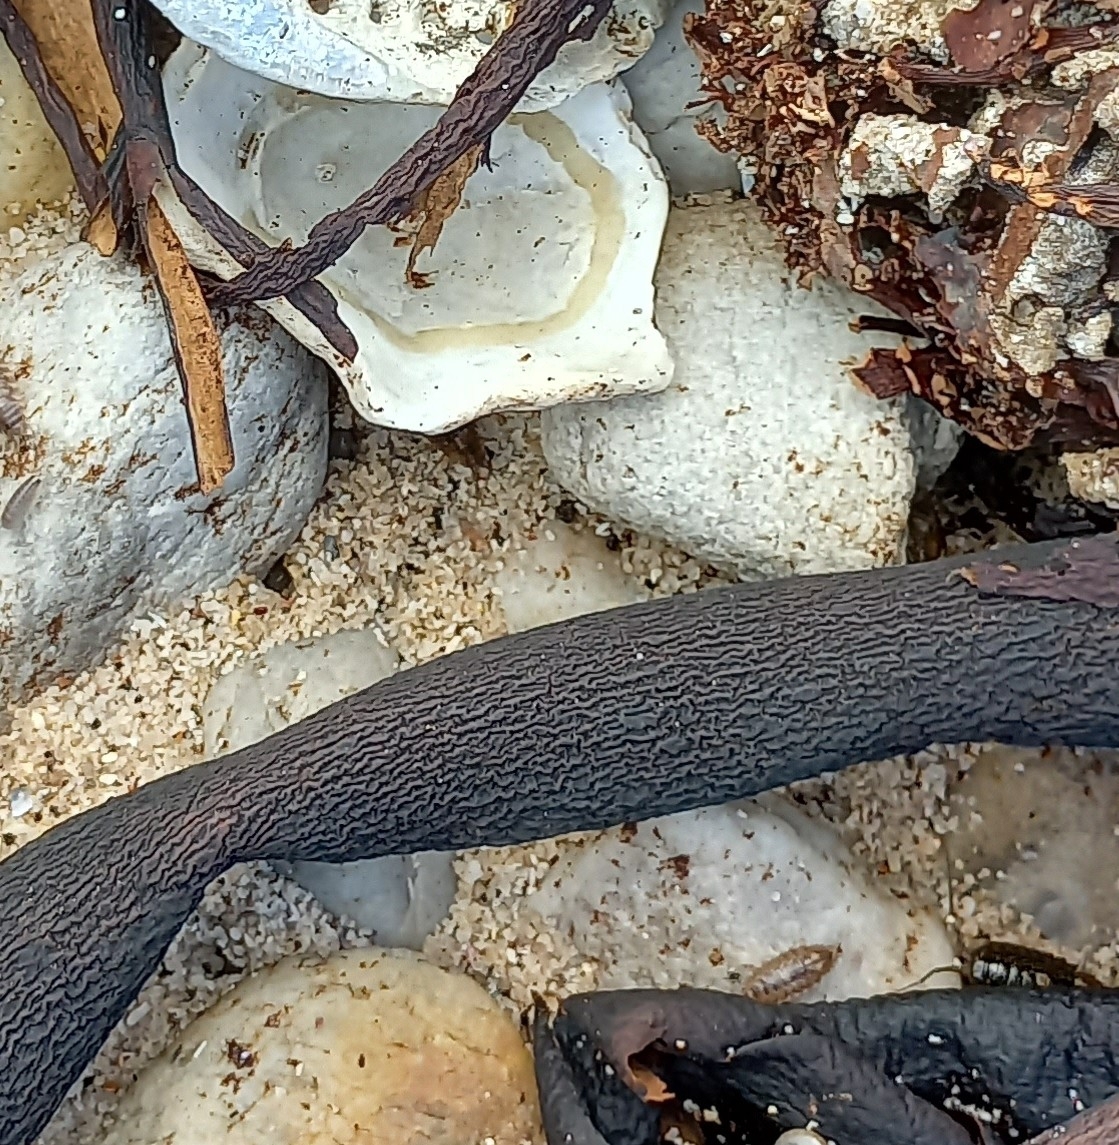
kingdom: Chromista
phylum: Ochrophyta
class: Phaeophyceae
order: Laminariales
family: Lessoniaceae
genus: Ecklonia
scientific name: Ecklonia
